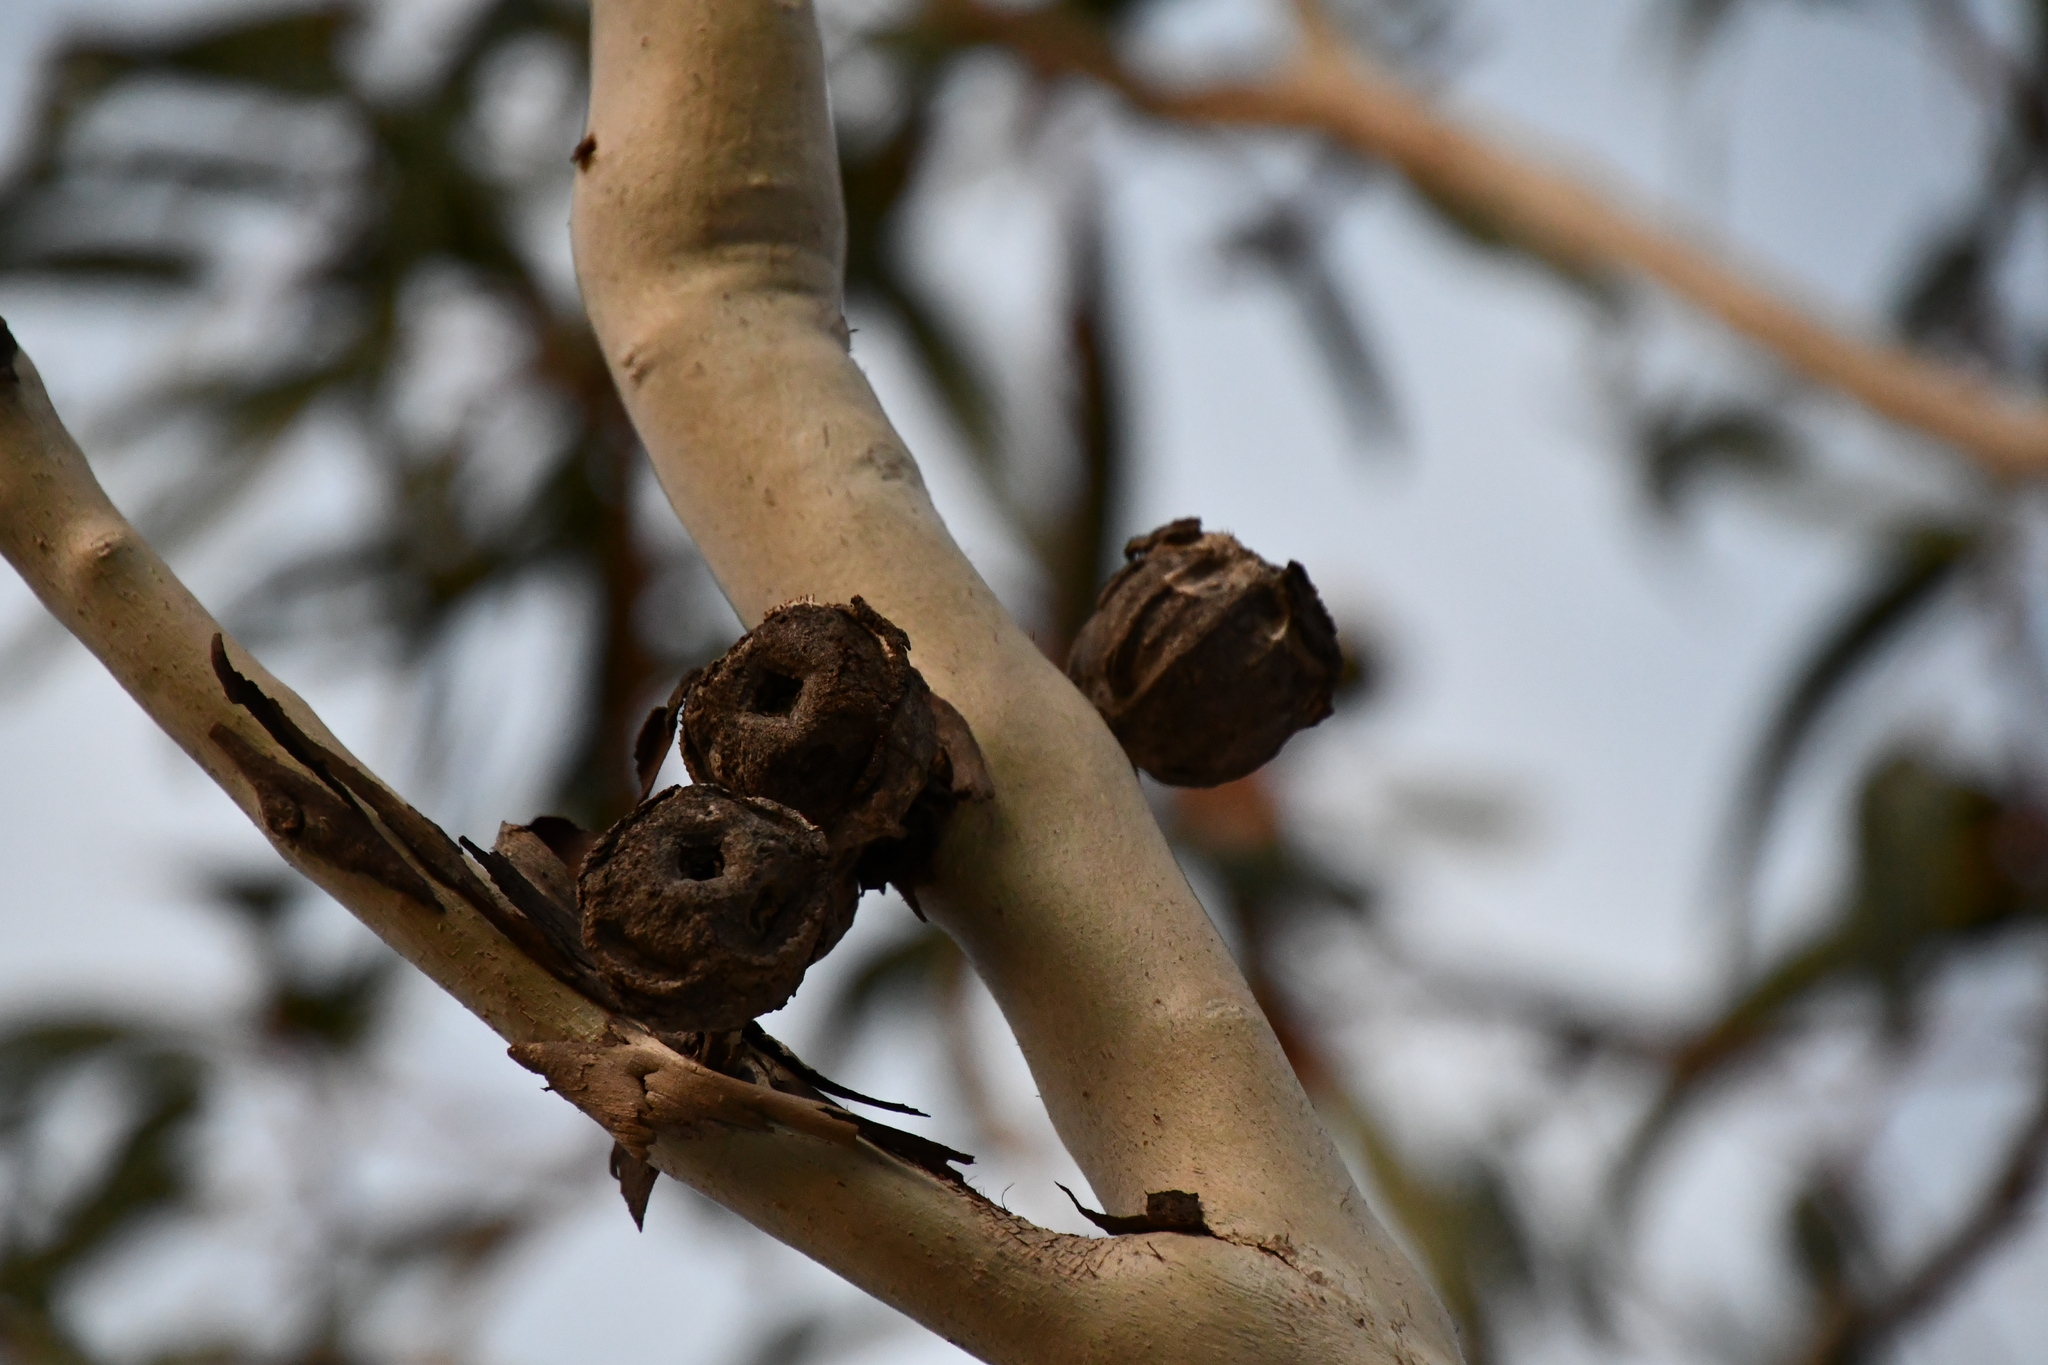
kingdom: Plantae
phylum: Tracheophyta
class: Magnoliopsida
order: Myrtales
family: Myrtaceae
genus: Eucalyptus
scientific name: Eucalyptus erythrocorys
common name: Bookara gum
